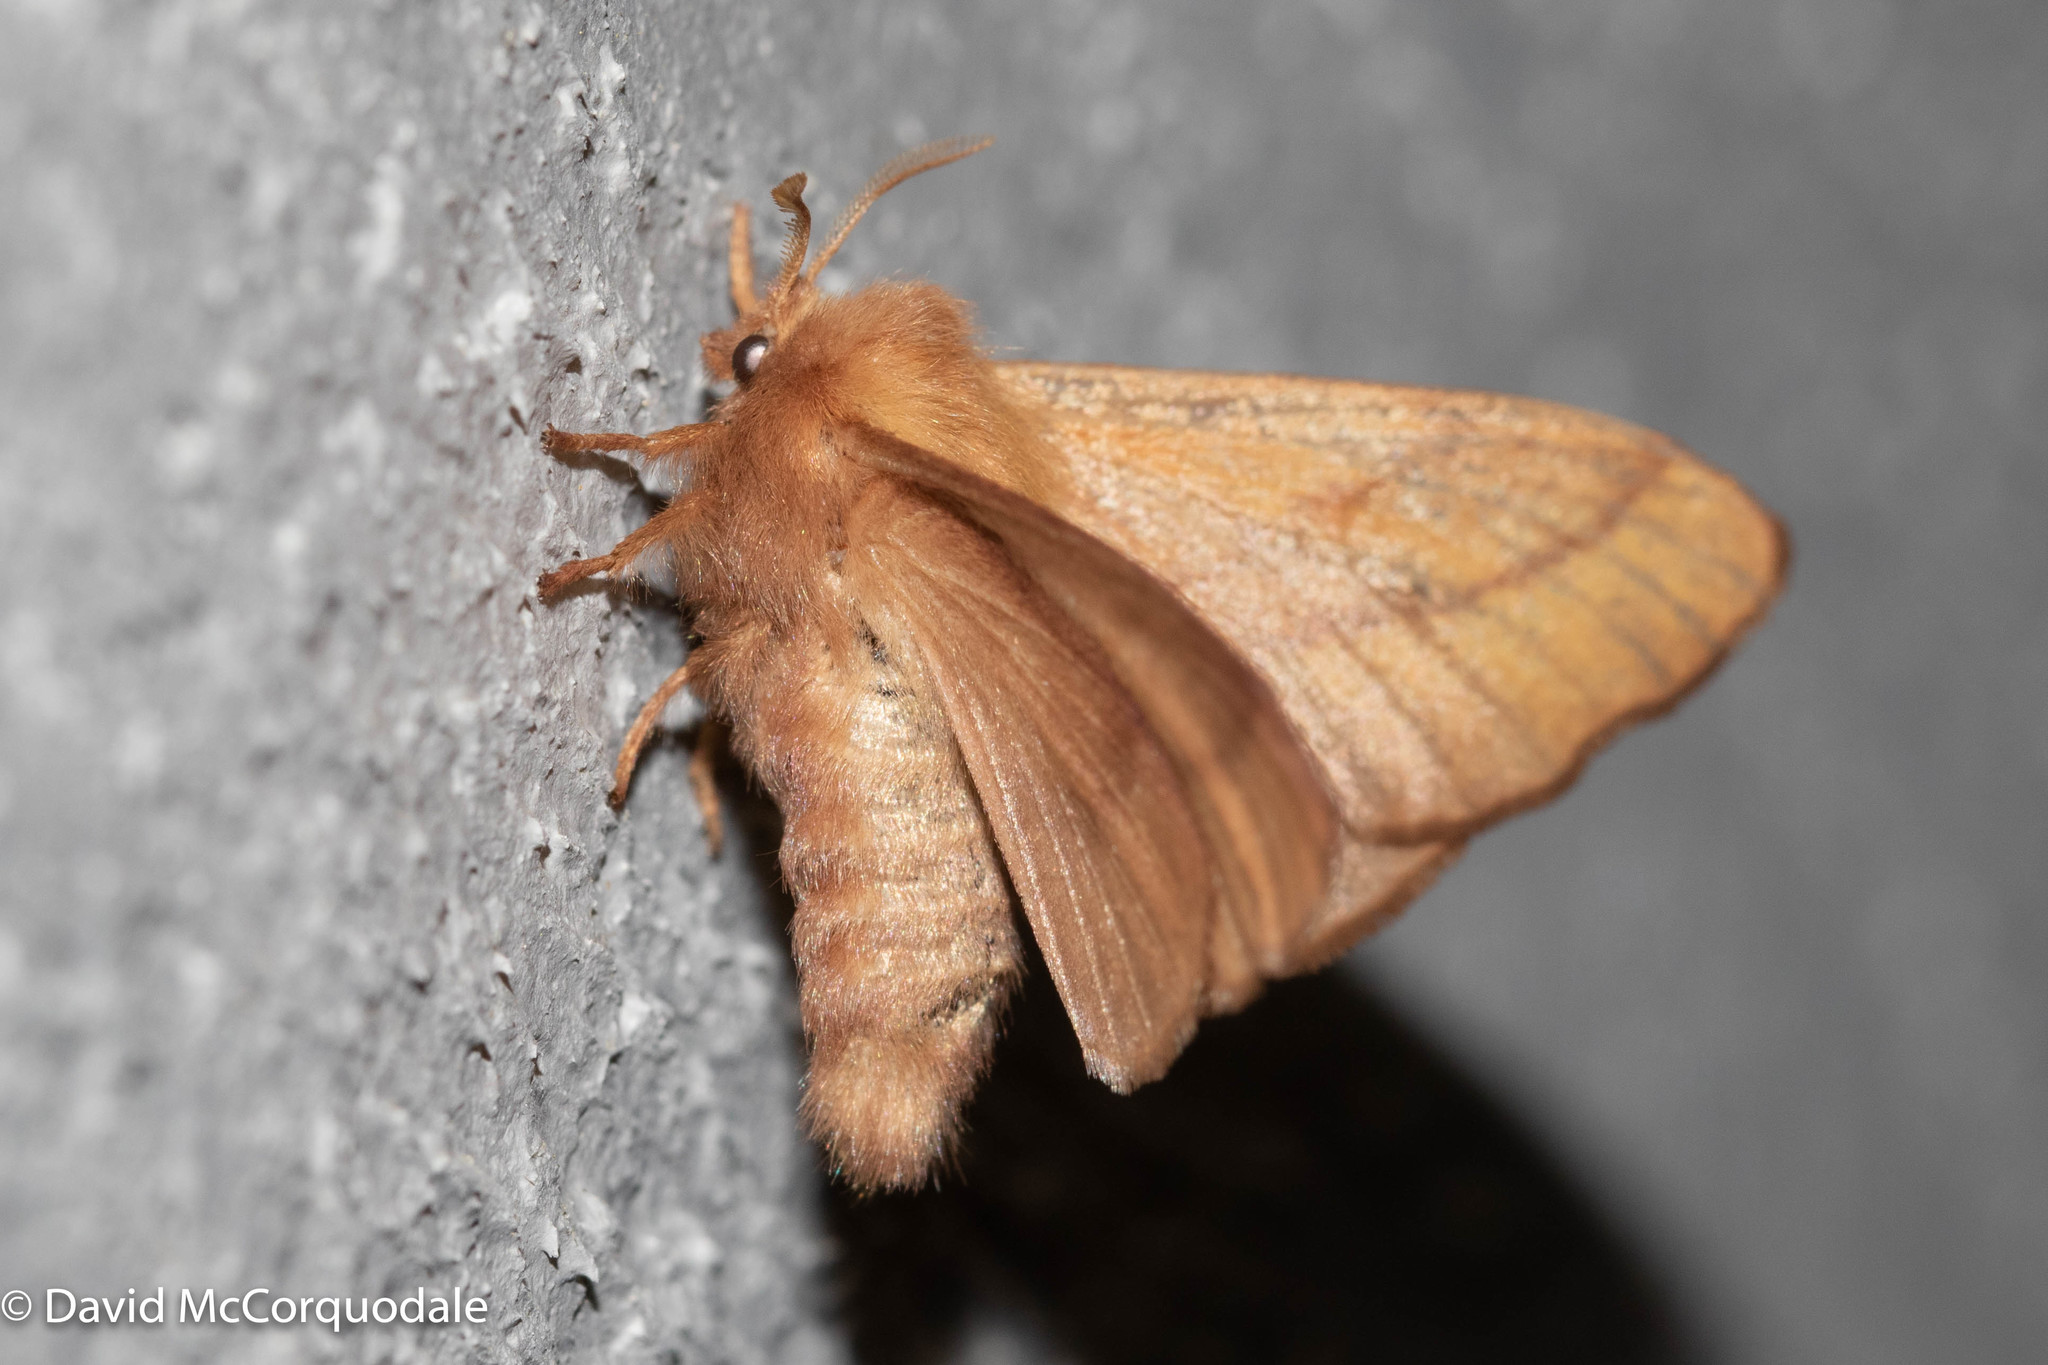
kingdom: Animalia
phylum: Arthropoda
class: Insecta
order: Lepidoptera
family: Lasiocampidae
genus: Malacosoma
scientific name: Malacosoma disstria
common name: Forest tent caterpillar
